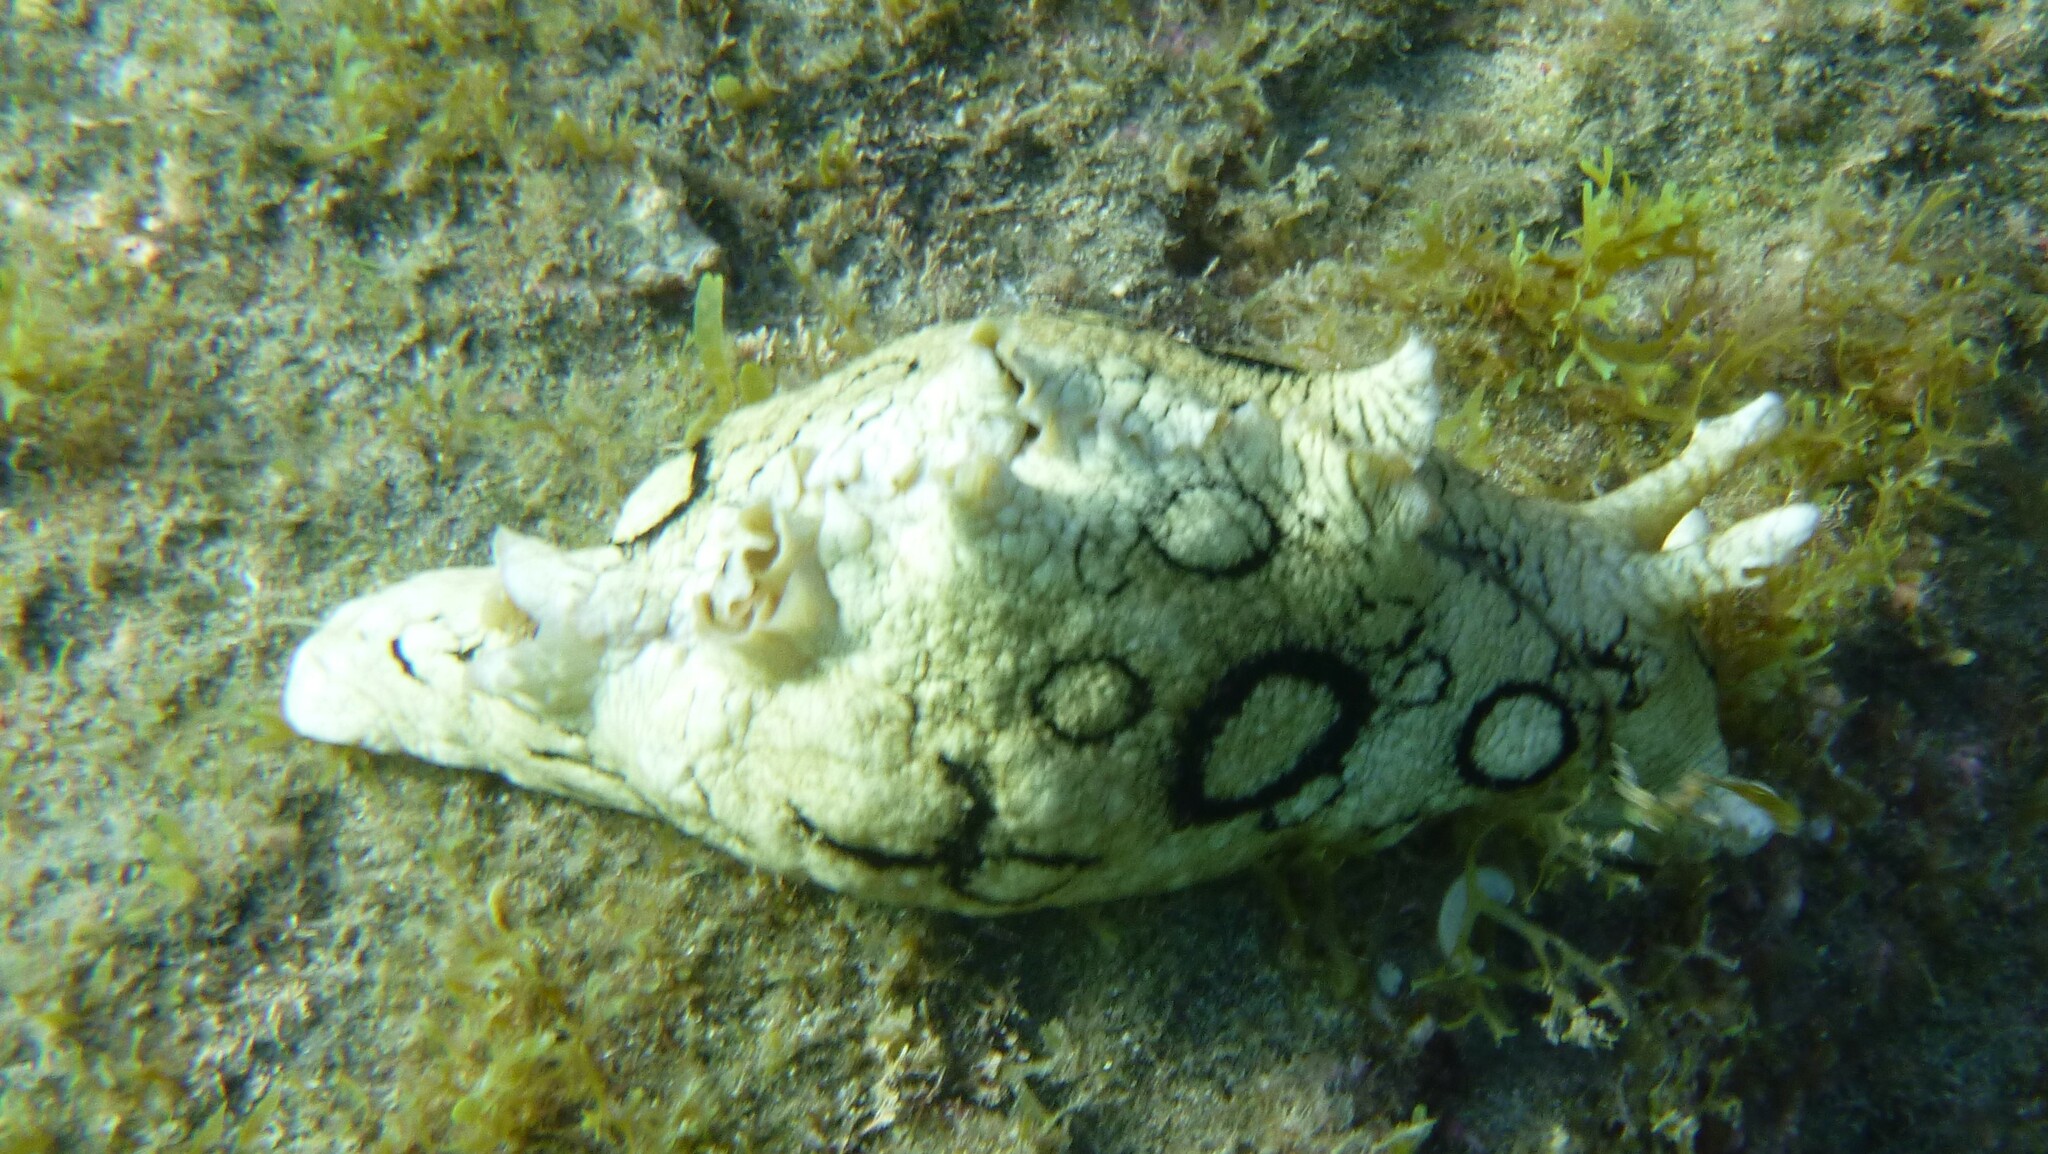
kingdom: Animalia
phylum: Mollusca
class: Gastropoda
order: Aplysiida
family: Aplysiidae
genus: Aplysia
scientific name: Aplysia dactylomela
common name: Large-spotted sea hare
